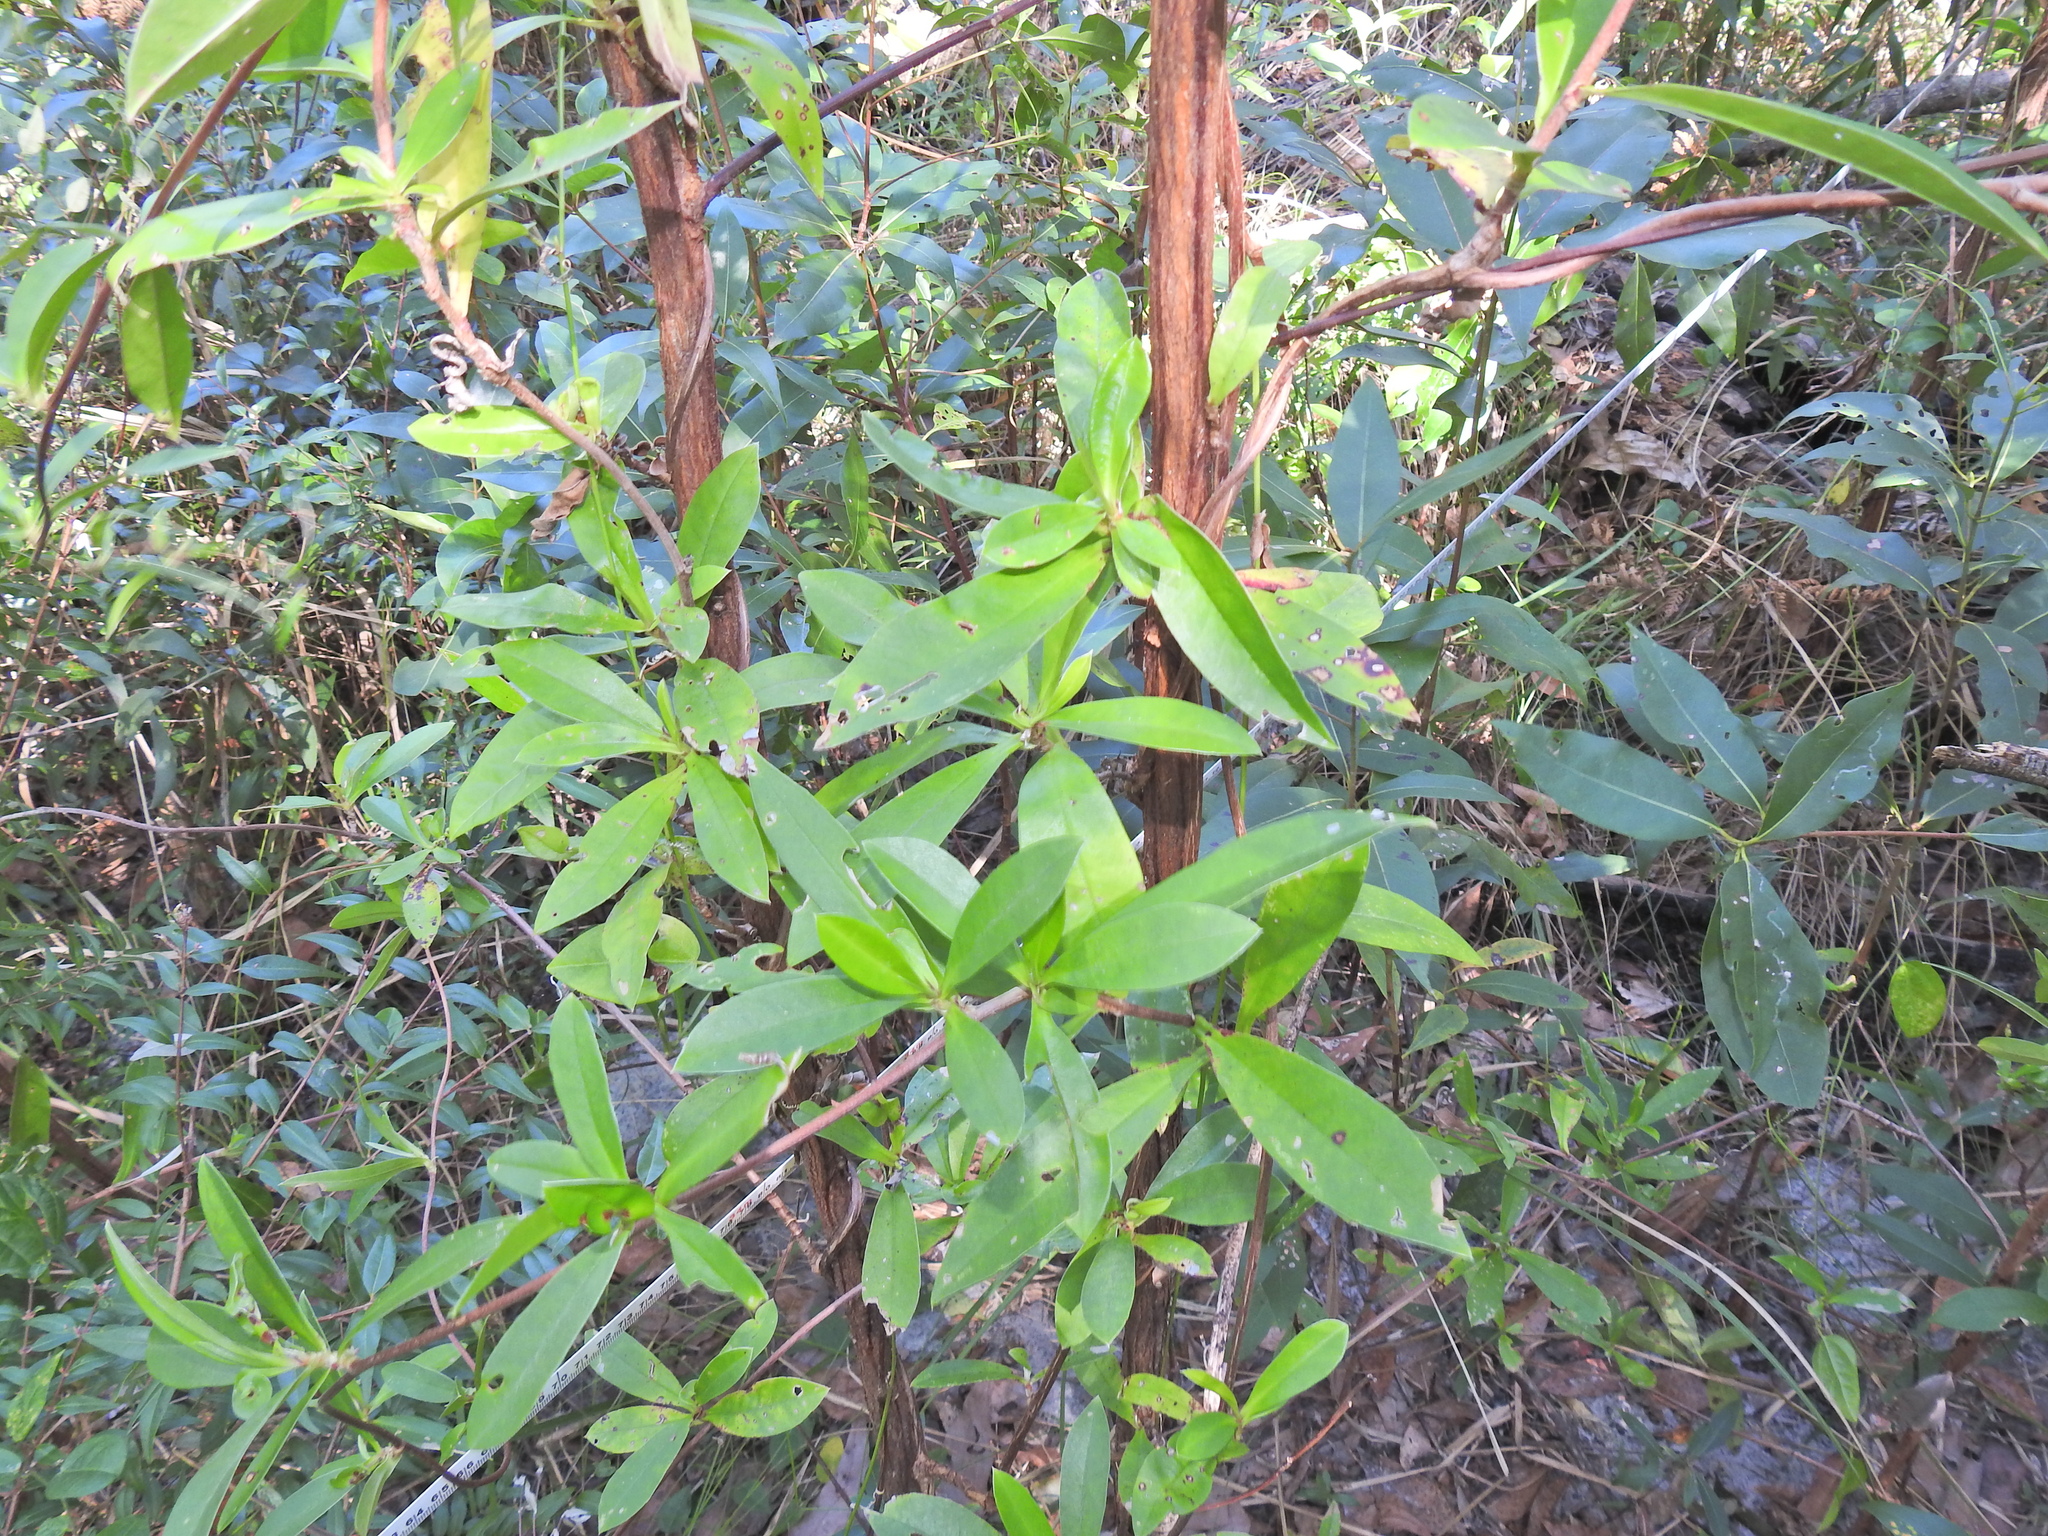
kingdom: Plantae
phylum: Tracheophyta
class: Magnoliopsida
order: Dilleniales
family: Dilleniaceae
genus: Hibbertia
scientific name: Hibbertia scandens
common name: Climbing guinea-flower
